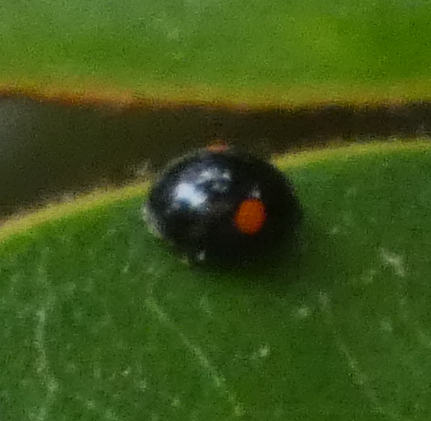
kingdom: Animalia
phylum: Arthropoda
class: Insecta
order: Coleoptera
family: Coccinellidae
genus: Chilocorus
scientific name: Chilocorus stigma
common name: Twicestabbed lady beetle
